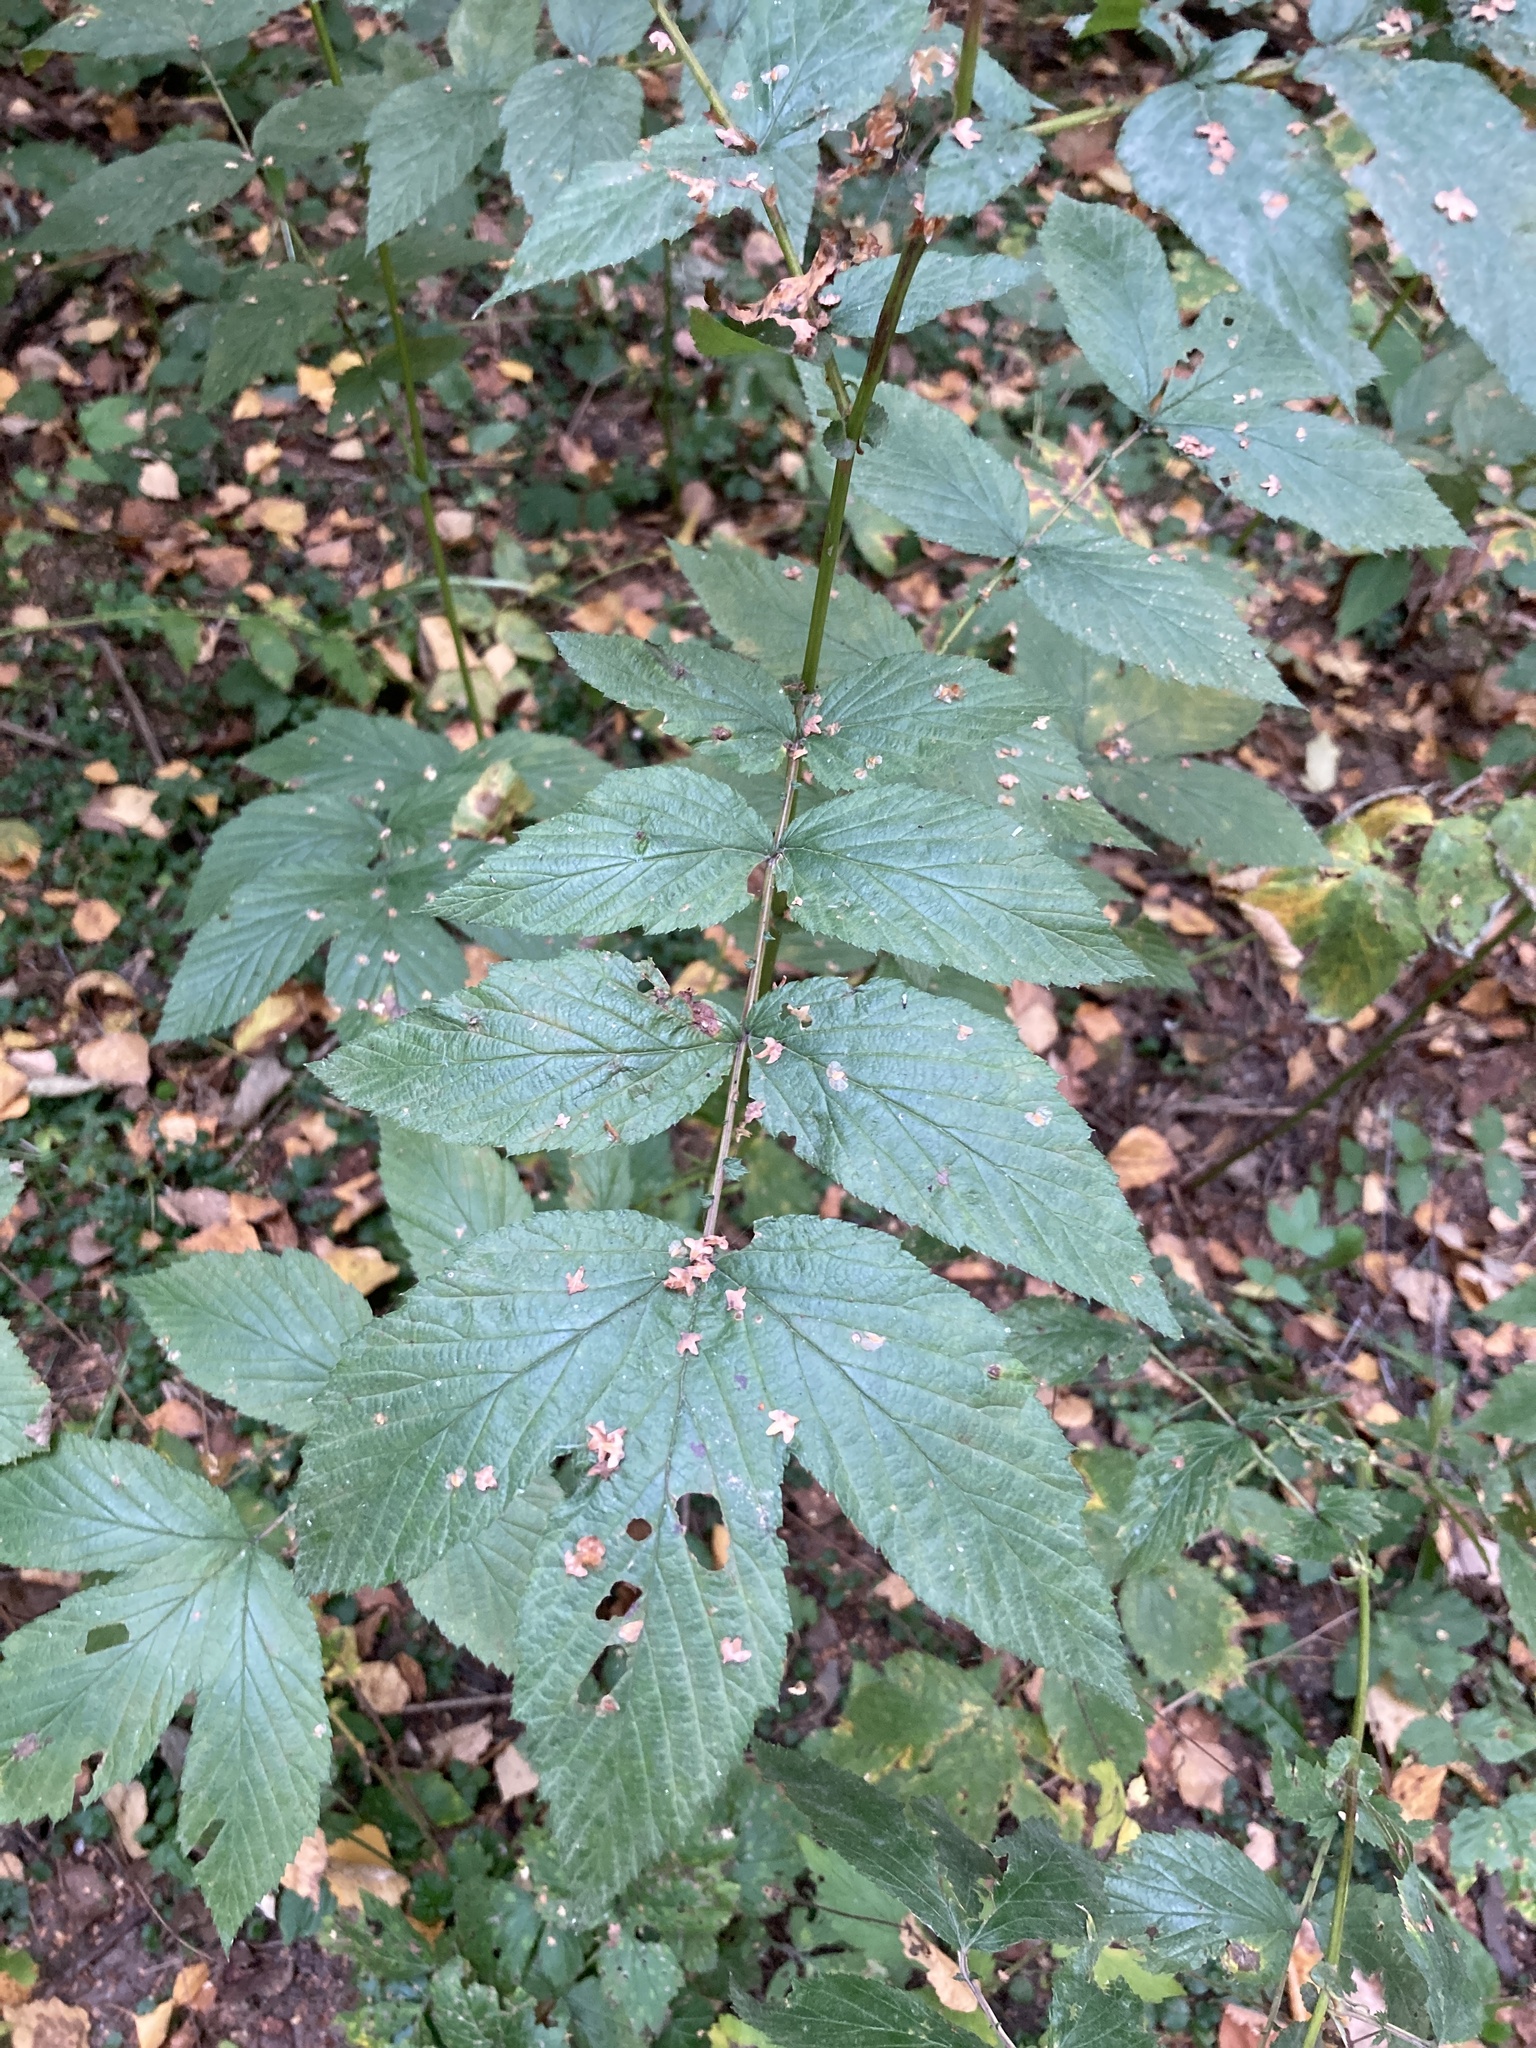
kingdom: Plantae
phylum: Tracheophyta
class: Magnoliopsida
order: Rosales
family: Rosaceae
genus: Filipendula
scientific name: Filipendula ulmaria
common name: Meadowsweet
